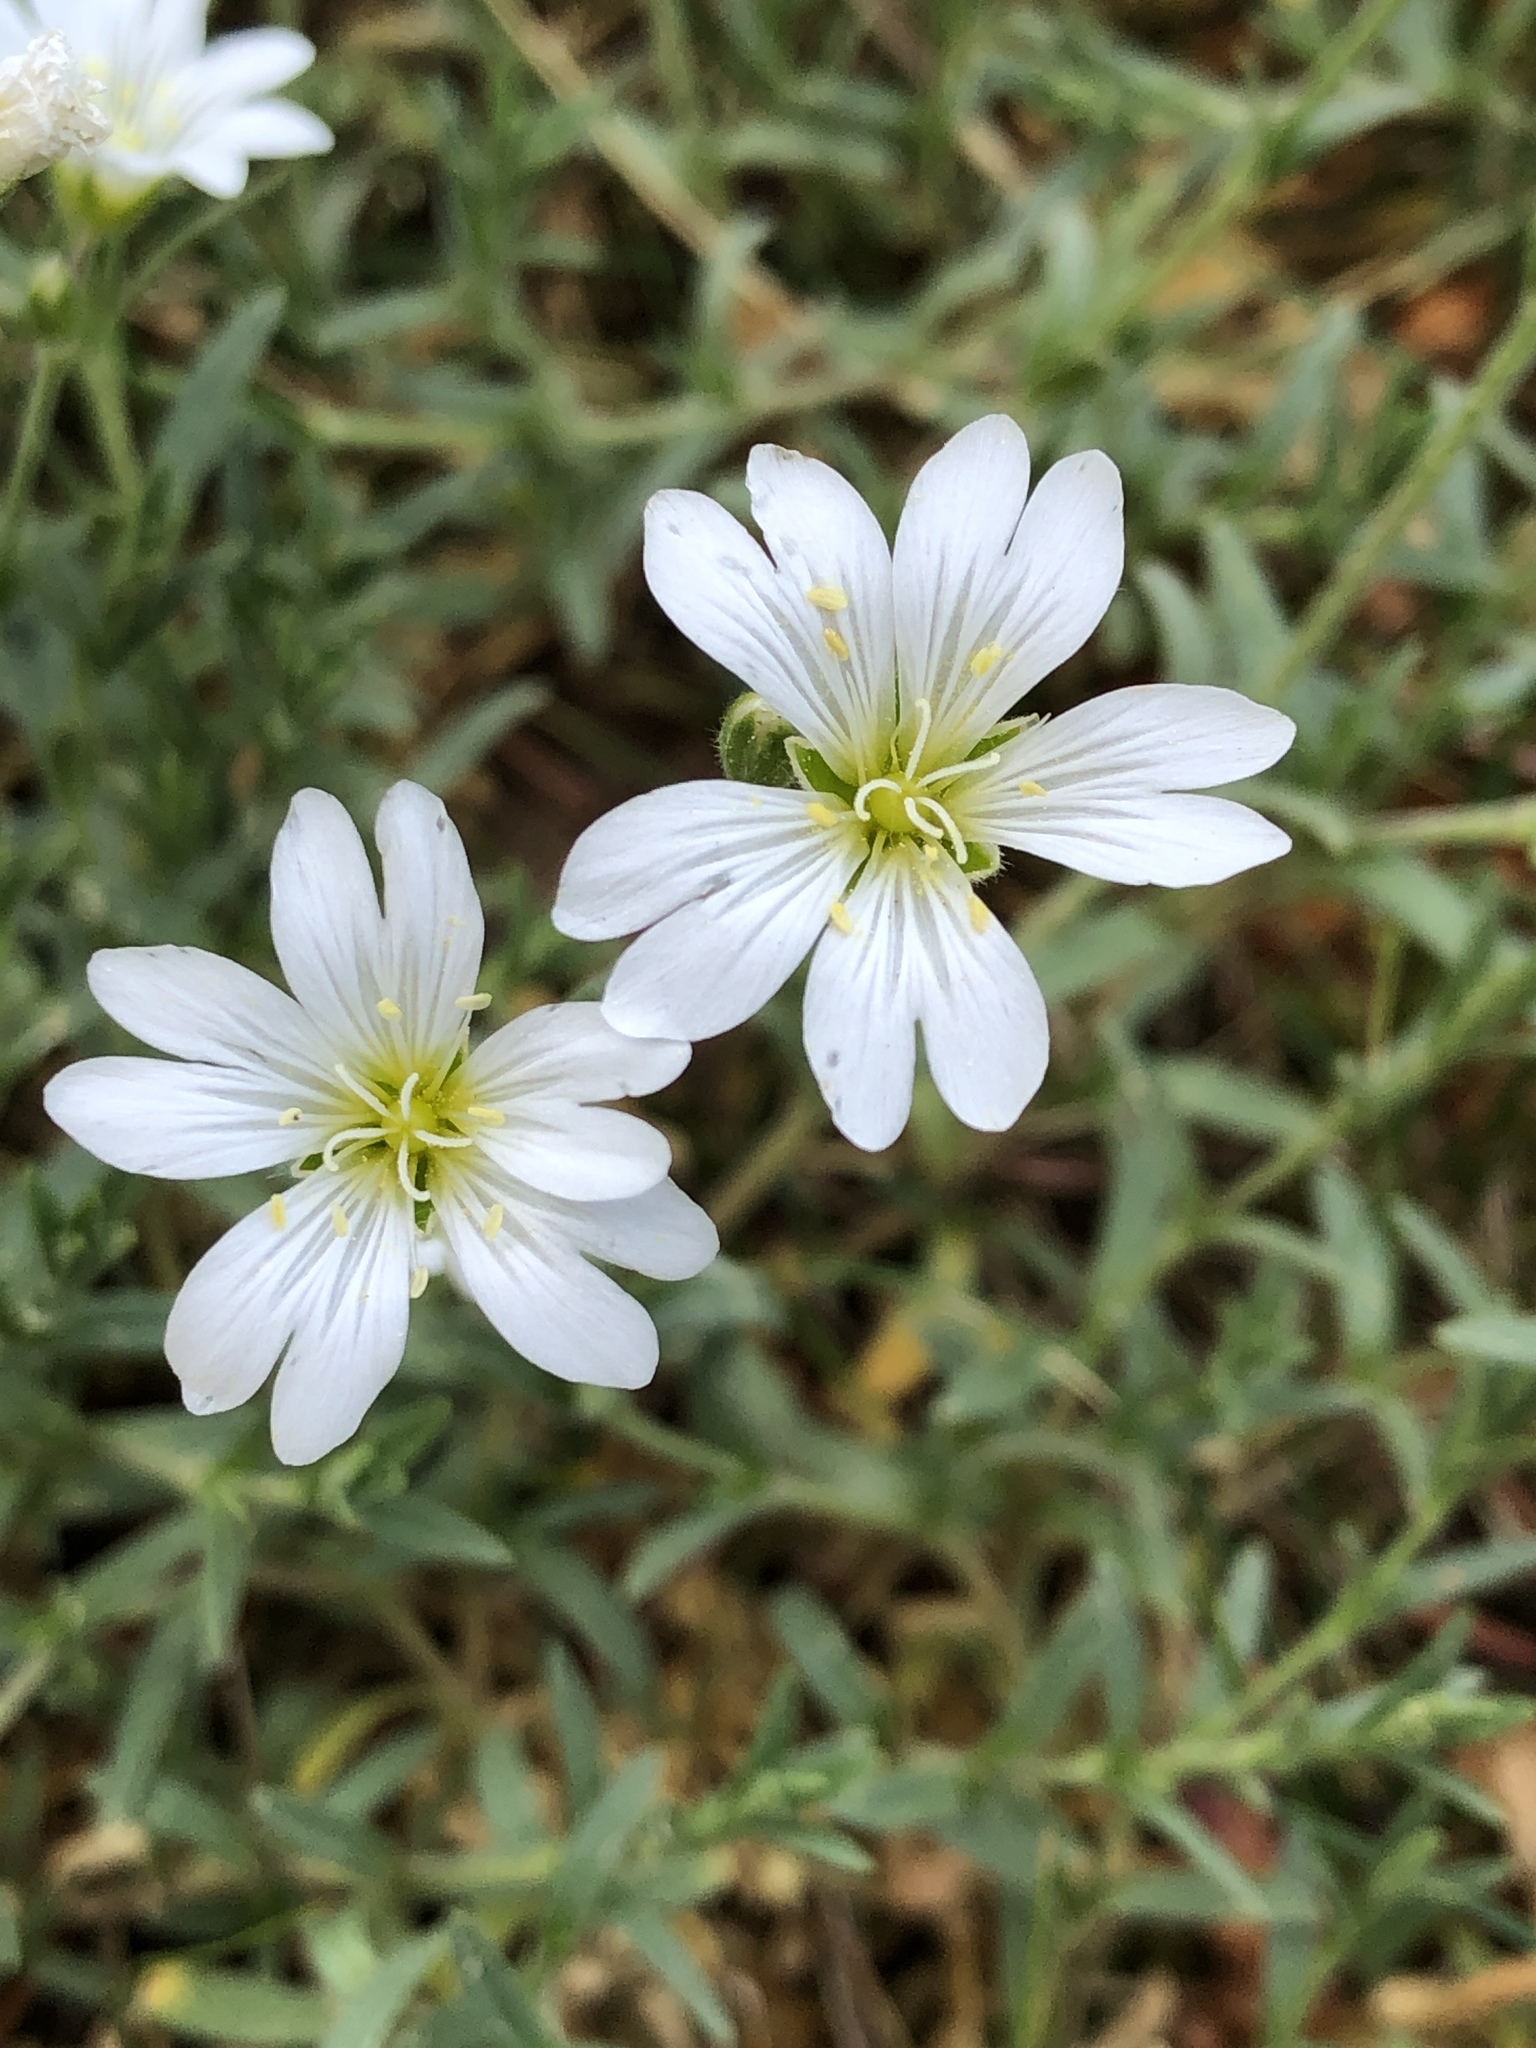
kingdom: Plantae
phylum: Tracheophyta
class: Magnoliopsida
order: Caryophyllales
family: Caryophyllaceae
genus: Cerastium
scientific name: Cerastium arvense
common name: Field mouse-ear
